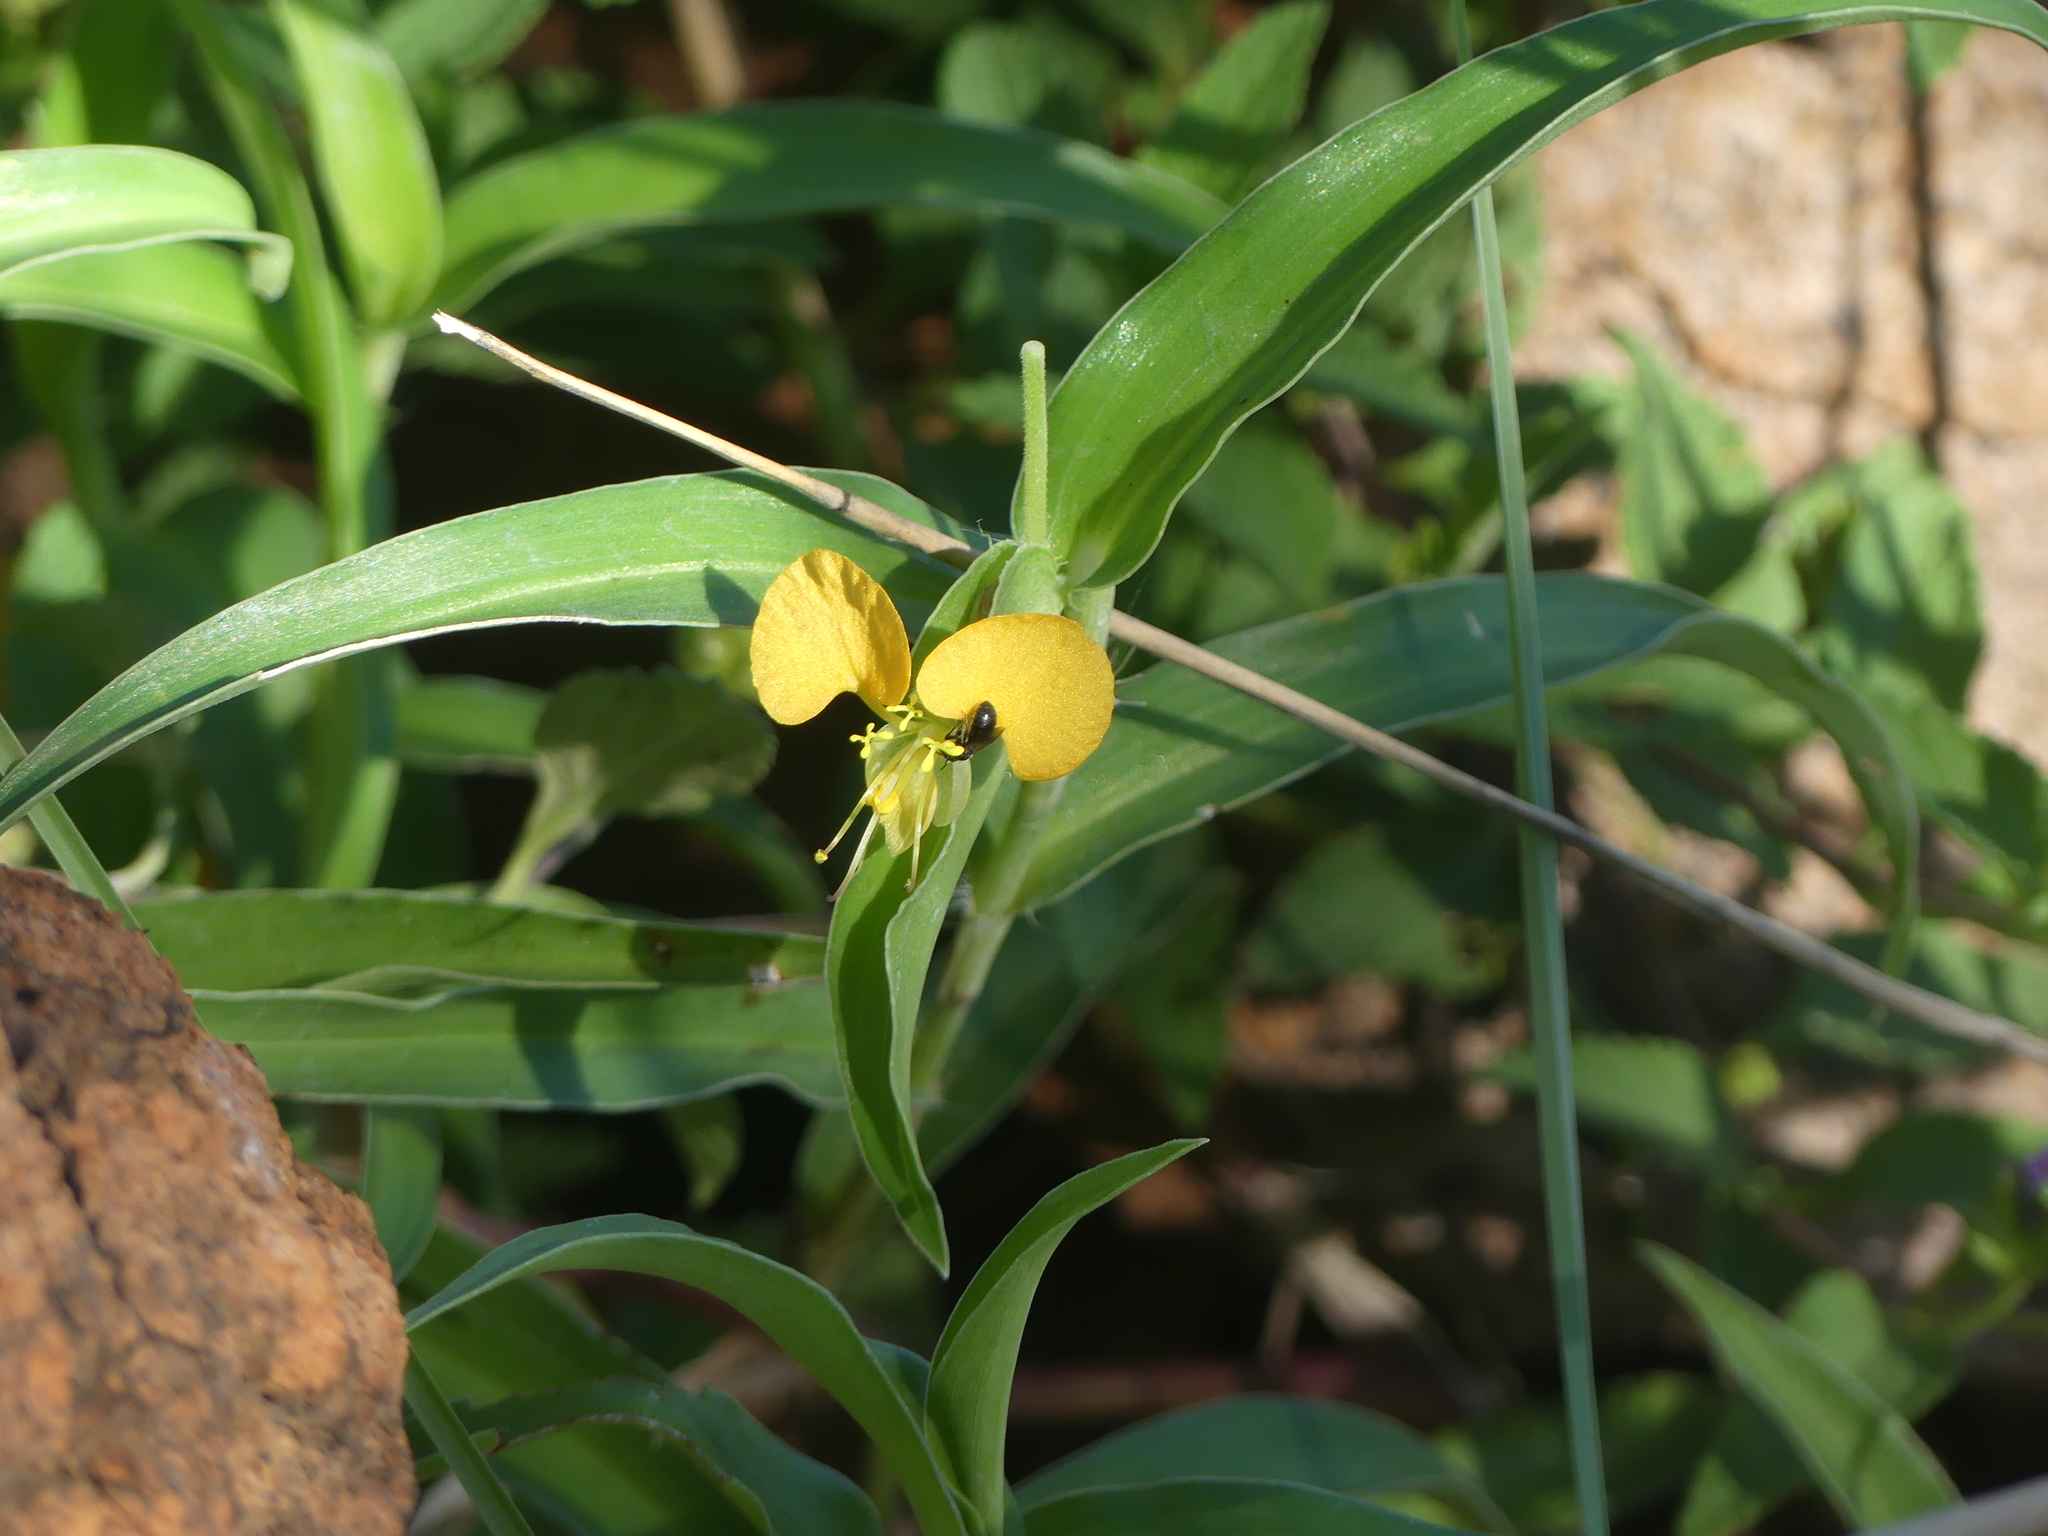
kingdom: Plantae
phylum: Tracheophyta
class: Liliopsida
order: Commelinales
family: Commelinaceae
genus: Commelina
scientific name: Commelina africana
